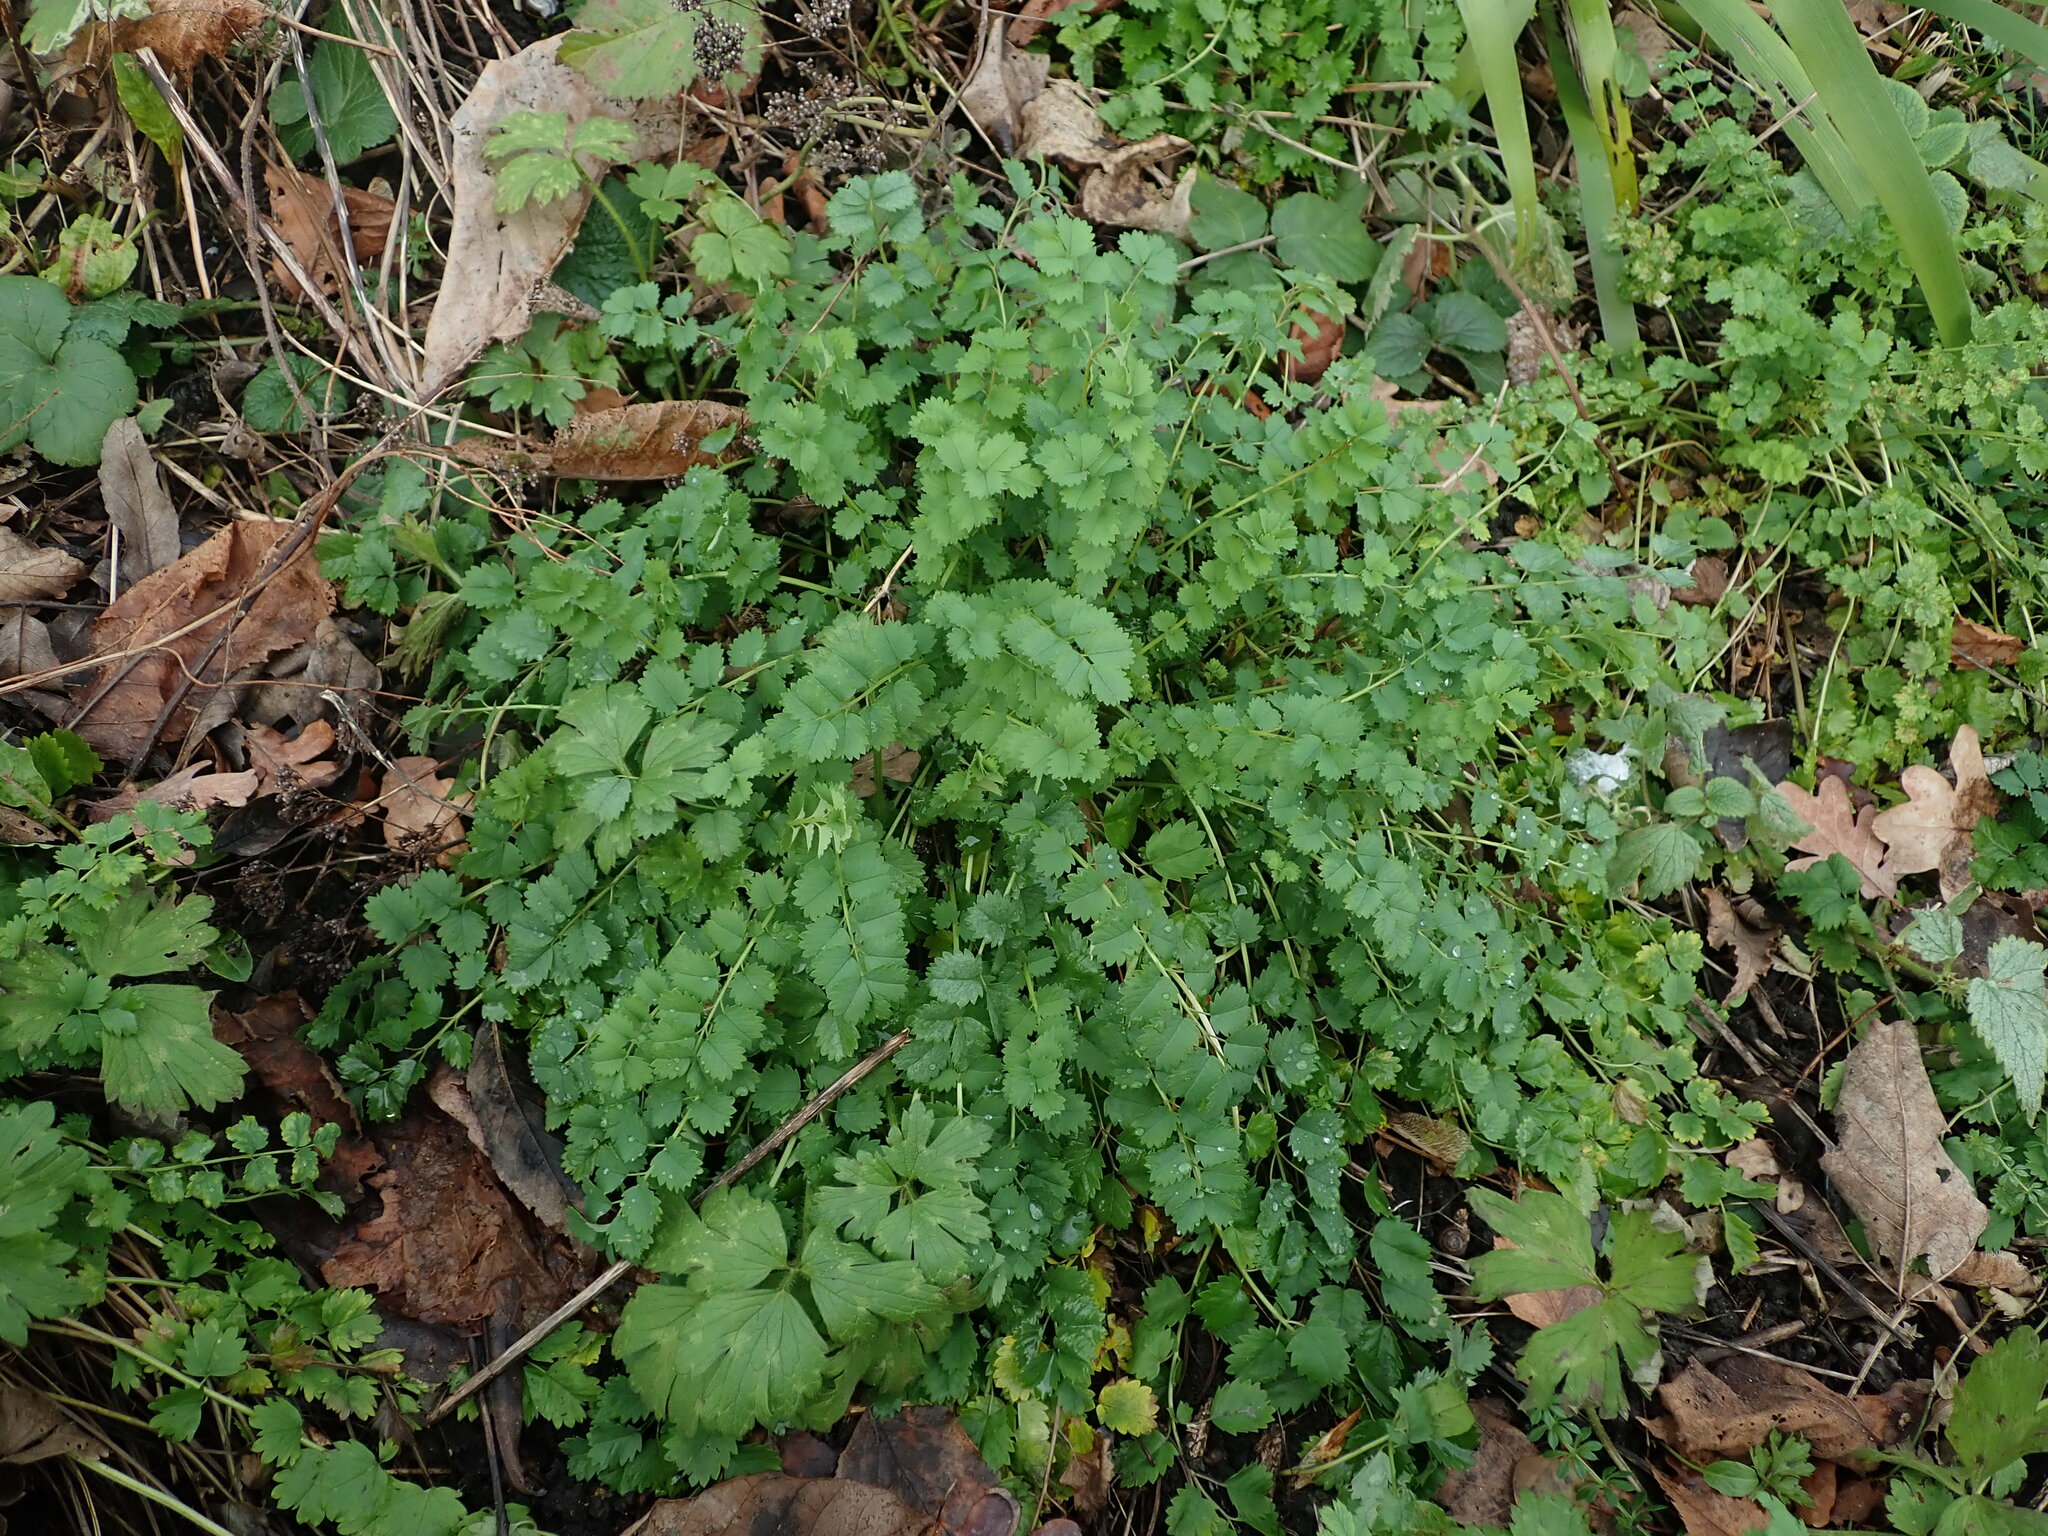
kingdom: Plantae
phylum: Tracheophyta
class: Magnoliopsida
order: Rosales
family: Rosaceae
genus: Poterium
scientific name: Poterium sanguisorba
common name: Salad burnet
